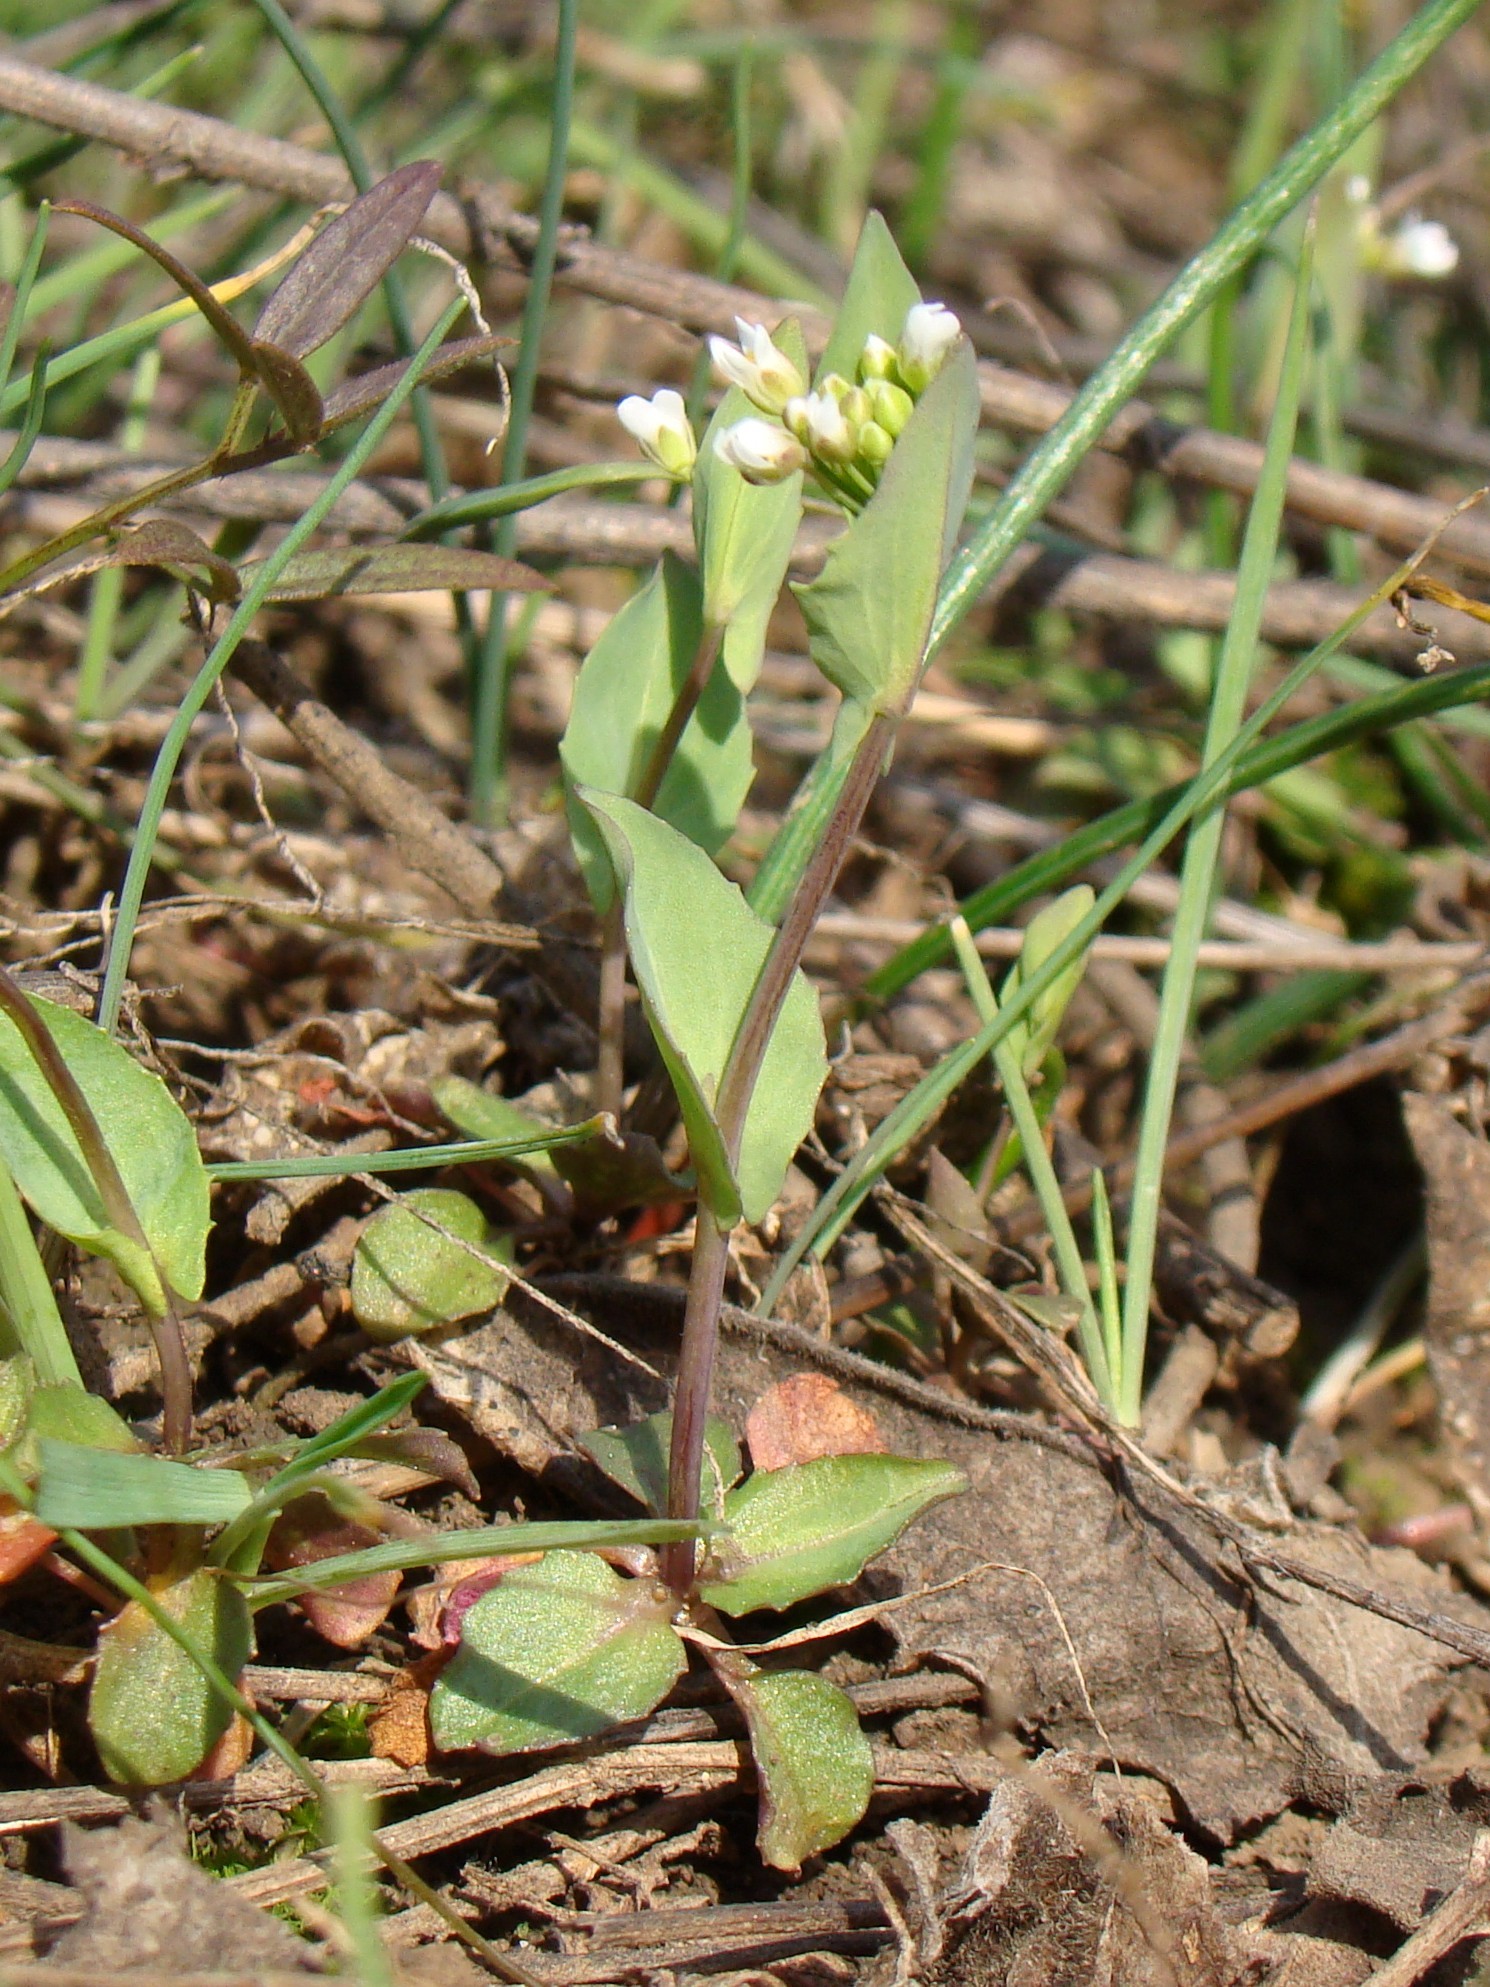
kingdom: Plantae
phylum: Tracheophyta
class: Magnoliopsida
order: Brassicales
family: Brassicaceae
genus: Noccaea
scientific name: Noccaea perfoliata
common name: Perfoliate pennycress
